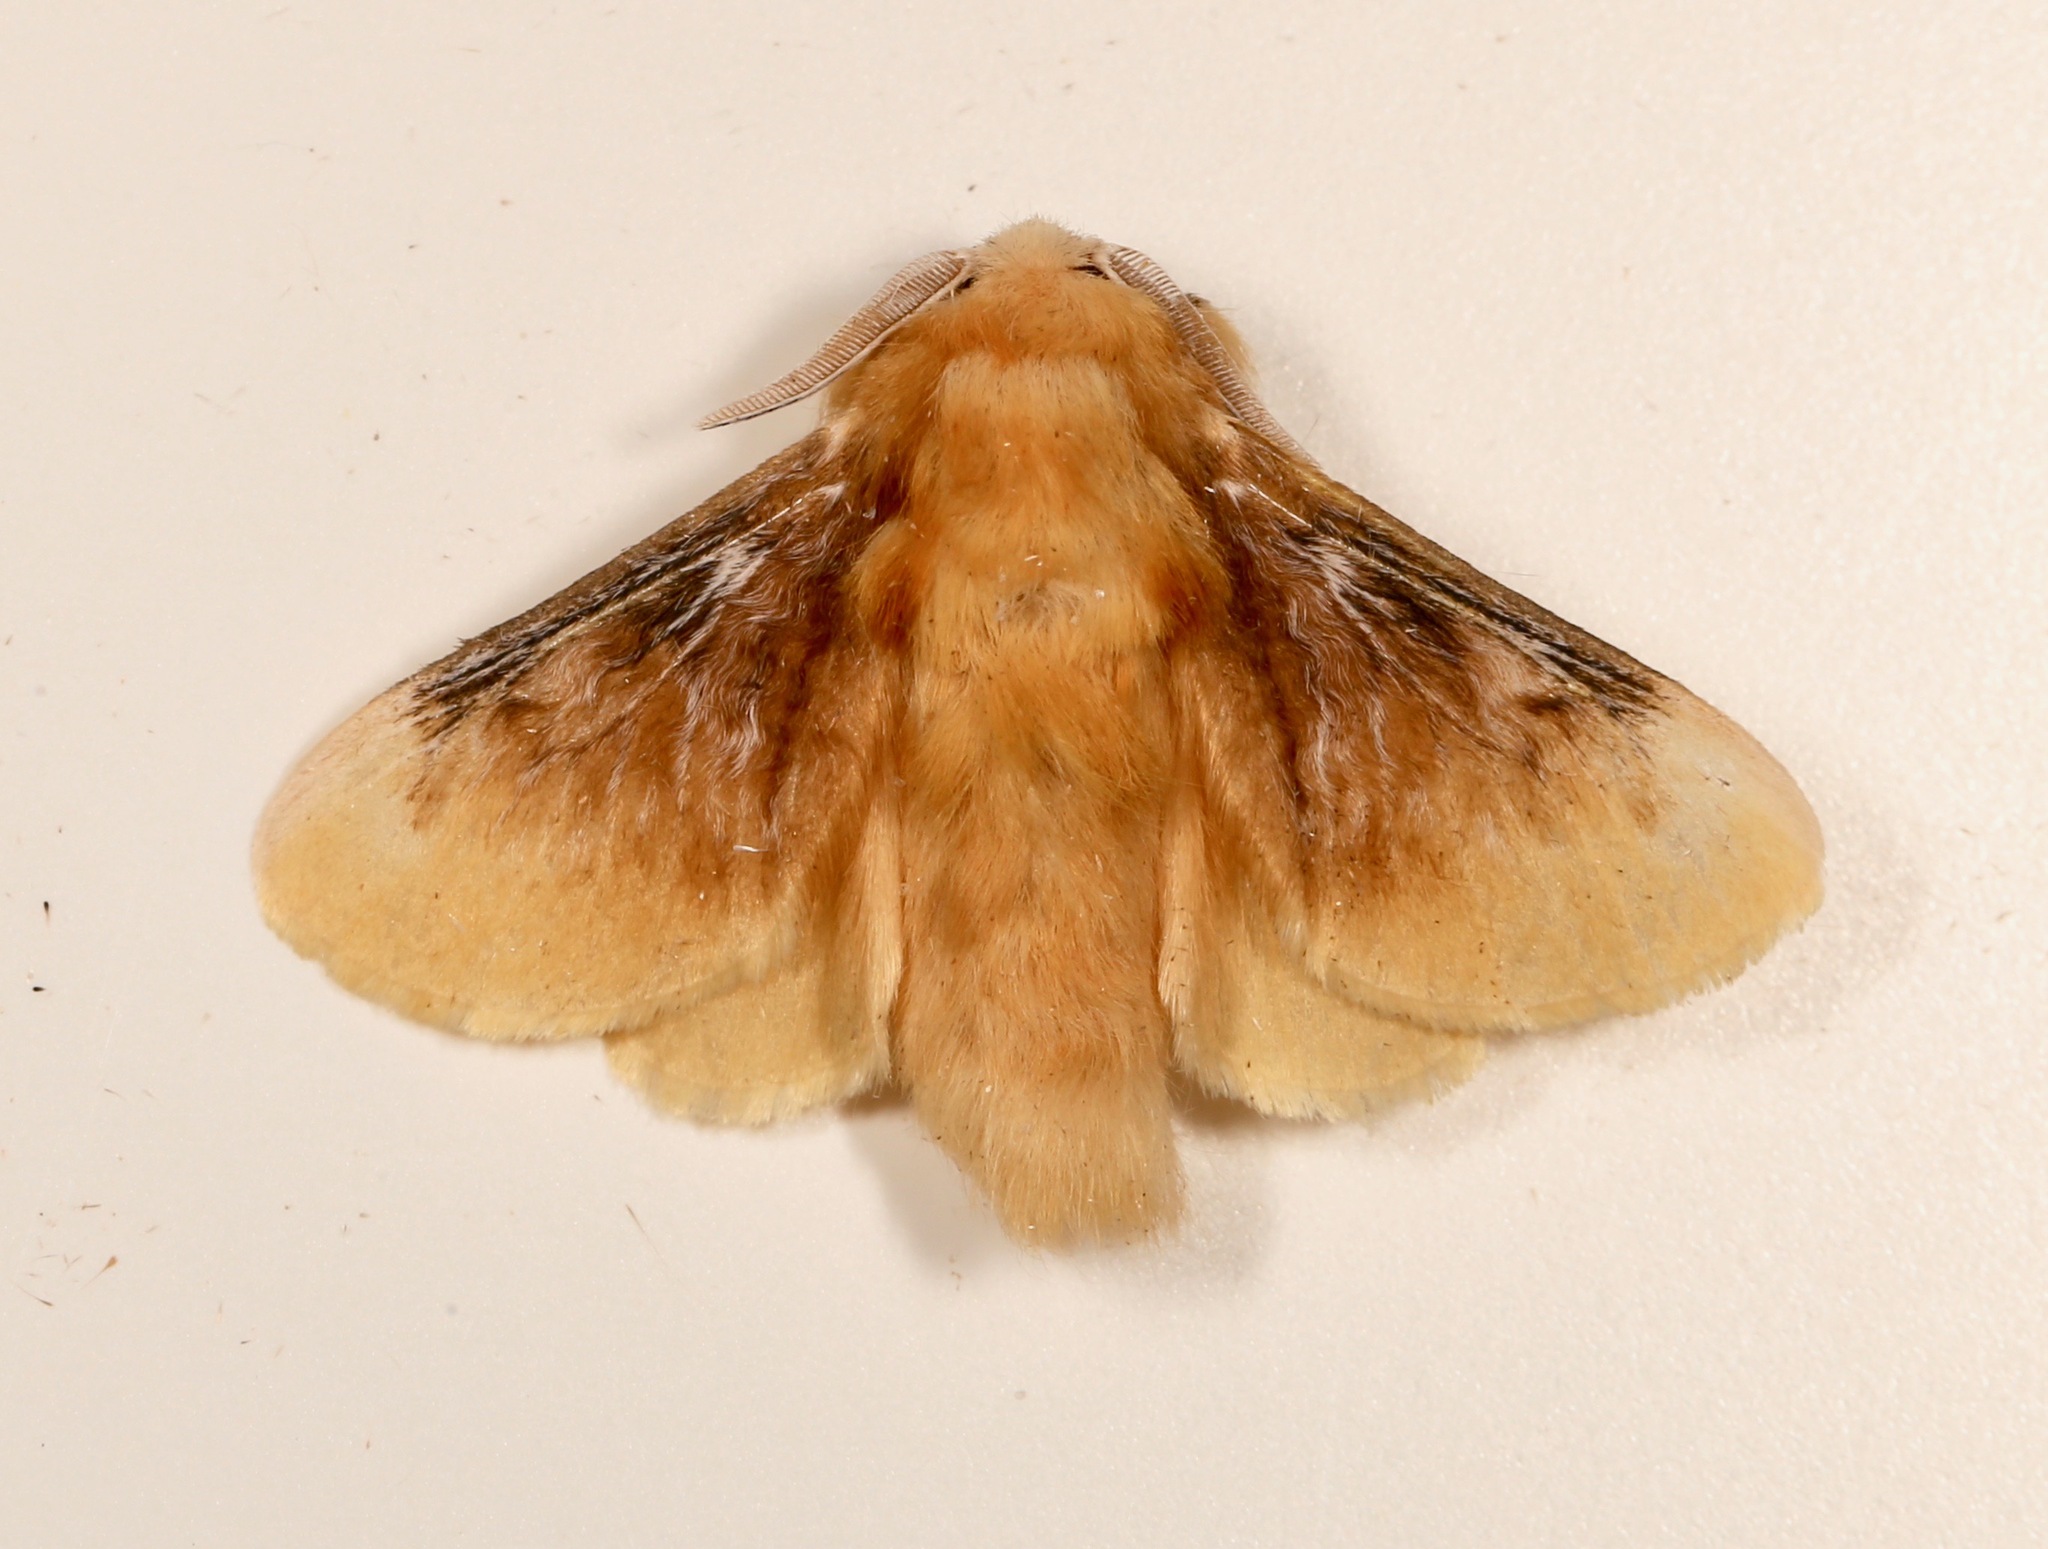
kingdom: Animalia
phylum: Arthropoda
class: Insecta
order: Lepidoptera
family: Megalopygidae
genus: Megalopyge
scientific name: Megalopyge opercularis
